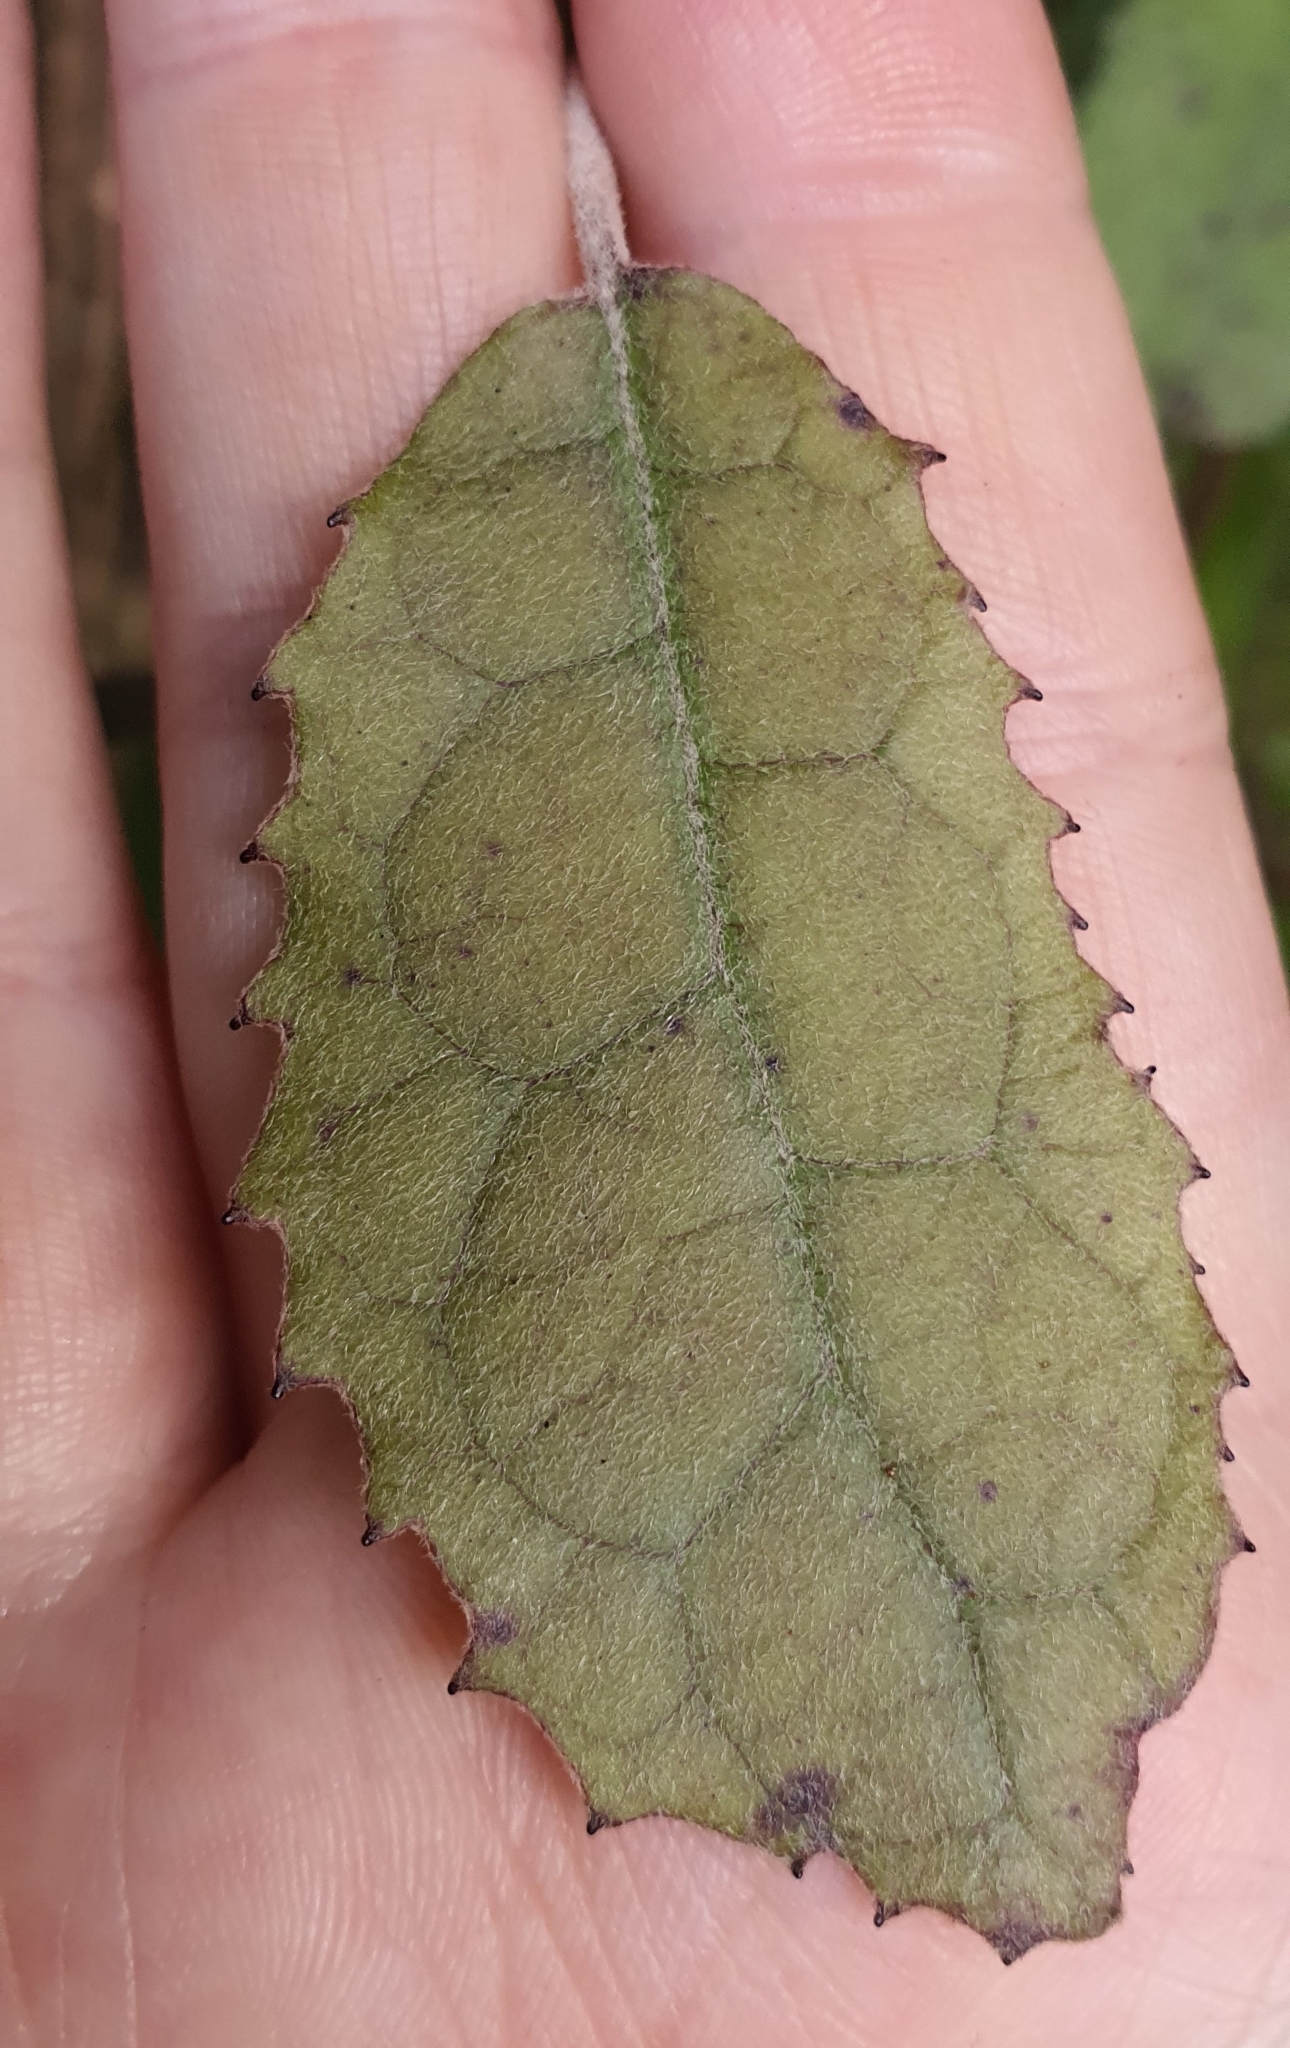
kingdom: Plantae
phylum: Tracheophyta
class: Magnoliopsida
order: Asterales
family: Asteraceae
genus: Olearia
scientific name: Olearia rani
